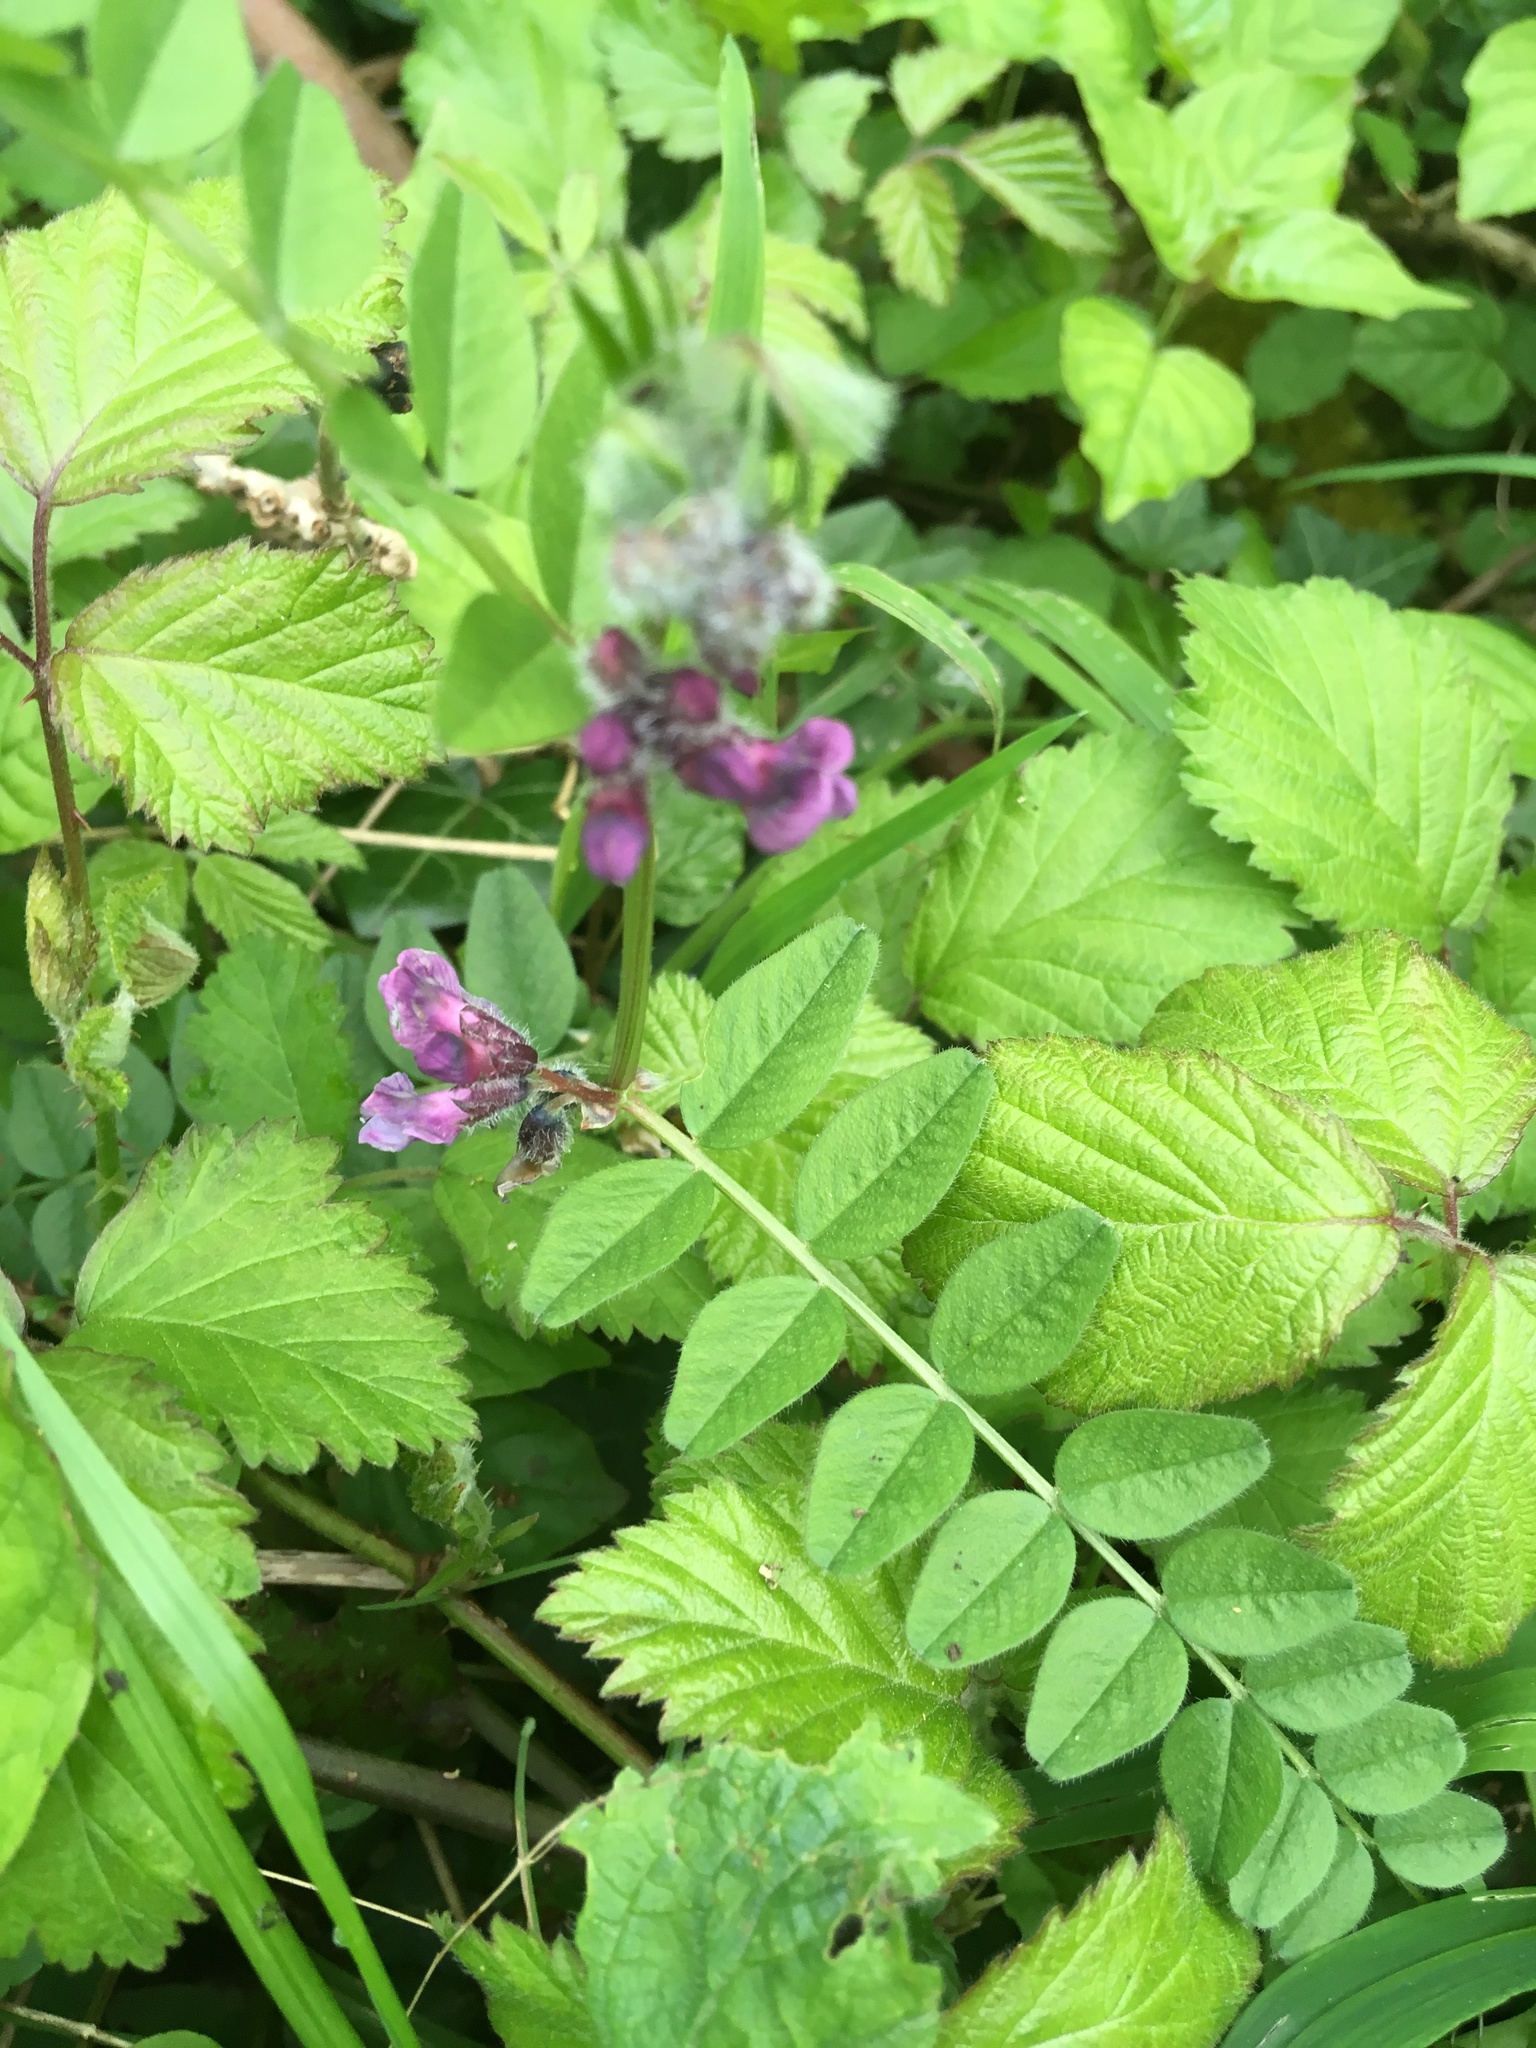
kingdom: Plantae
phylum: Tracheophyta
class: Magnoliopsida
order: Fabales
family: Fabaceae
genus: Vicia
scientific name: Vicia sepium
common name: Bush vetch
